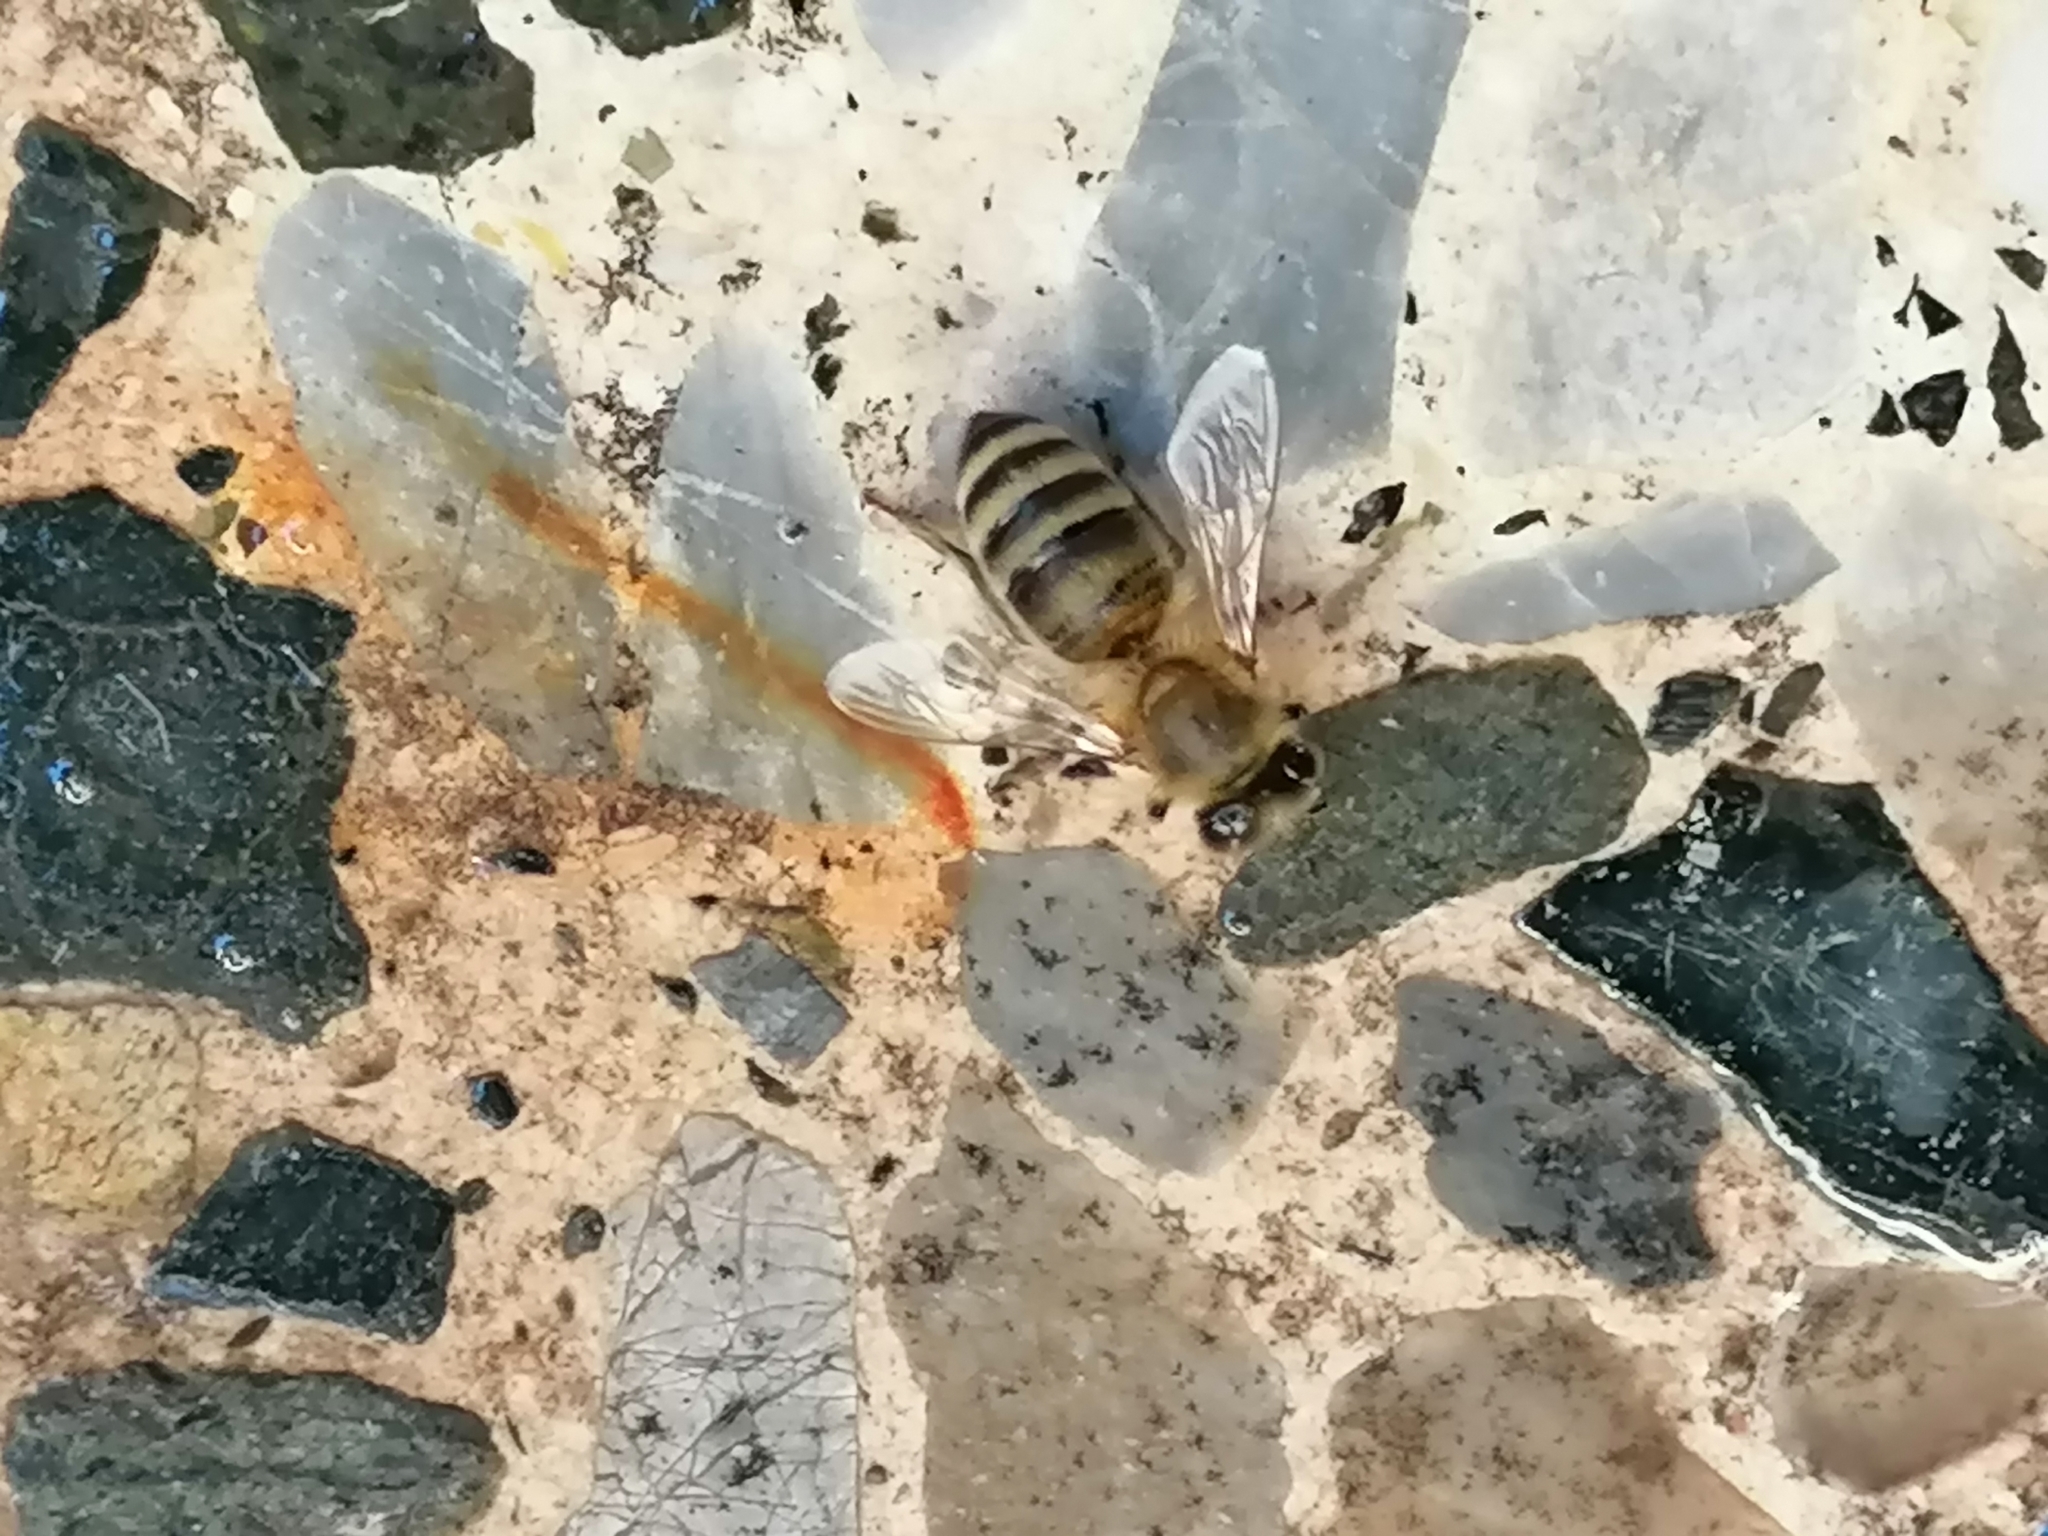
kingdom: Animalia
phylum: Arthropoda
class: Insecta
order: Hymenoptera
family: Apidae
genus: Apis
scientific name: Apis mellifera
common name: Honey bee
